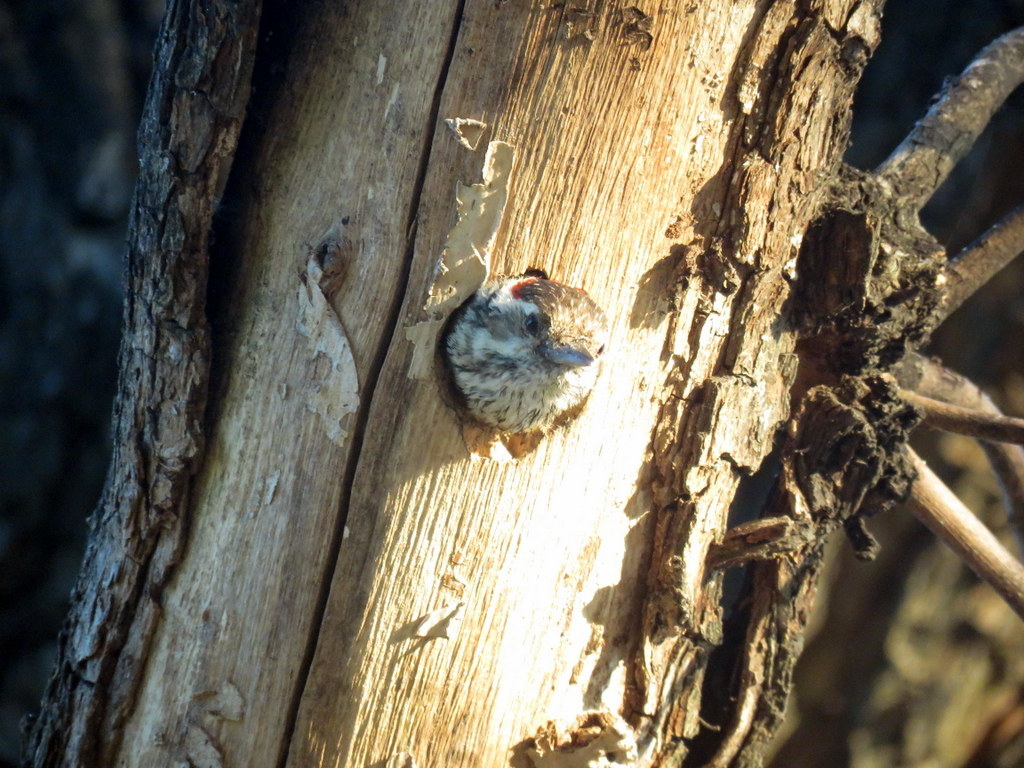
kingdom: Animalia
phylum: Chordata
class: Aves
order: Piciformes
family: Picidae
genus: Veniliornis
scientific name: Veniliornis mixtus
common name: Checkered woodpecker
